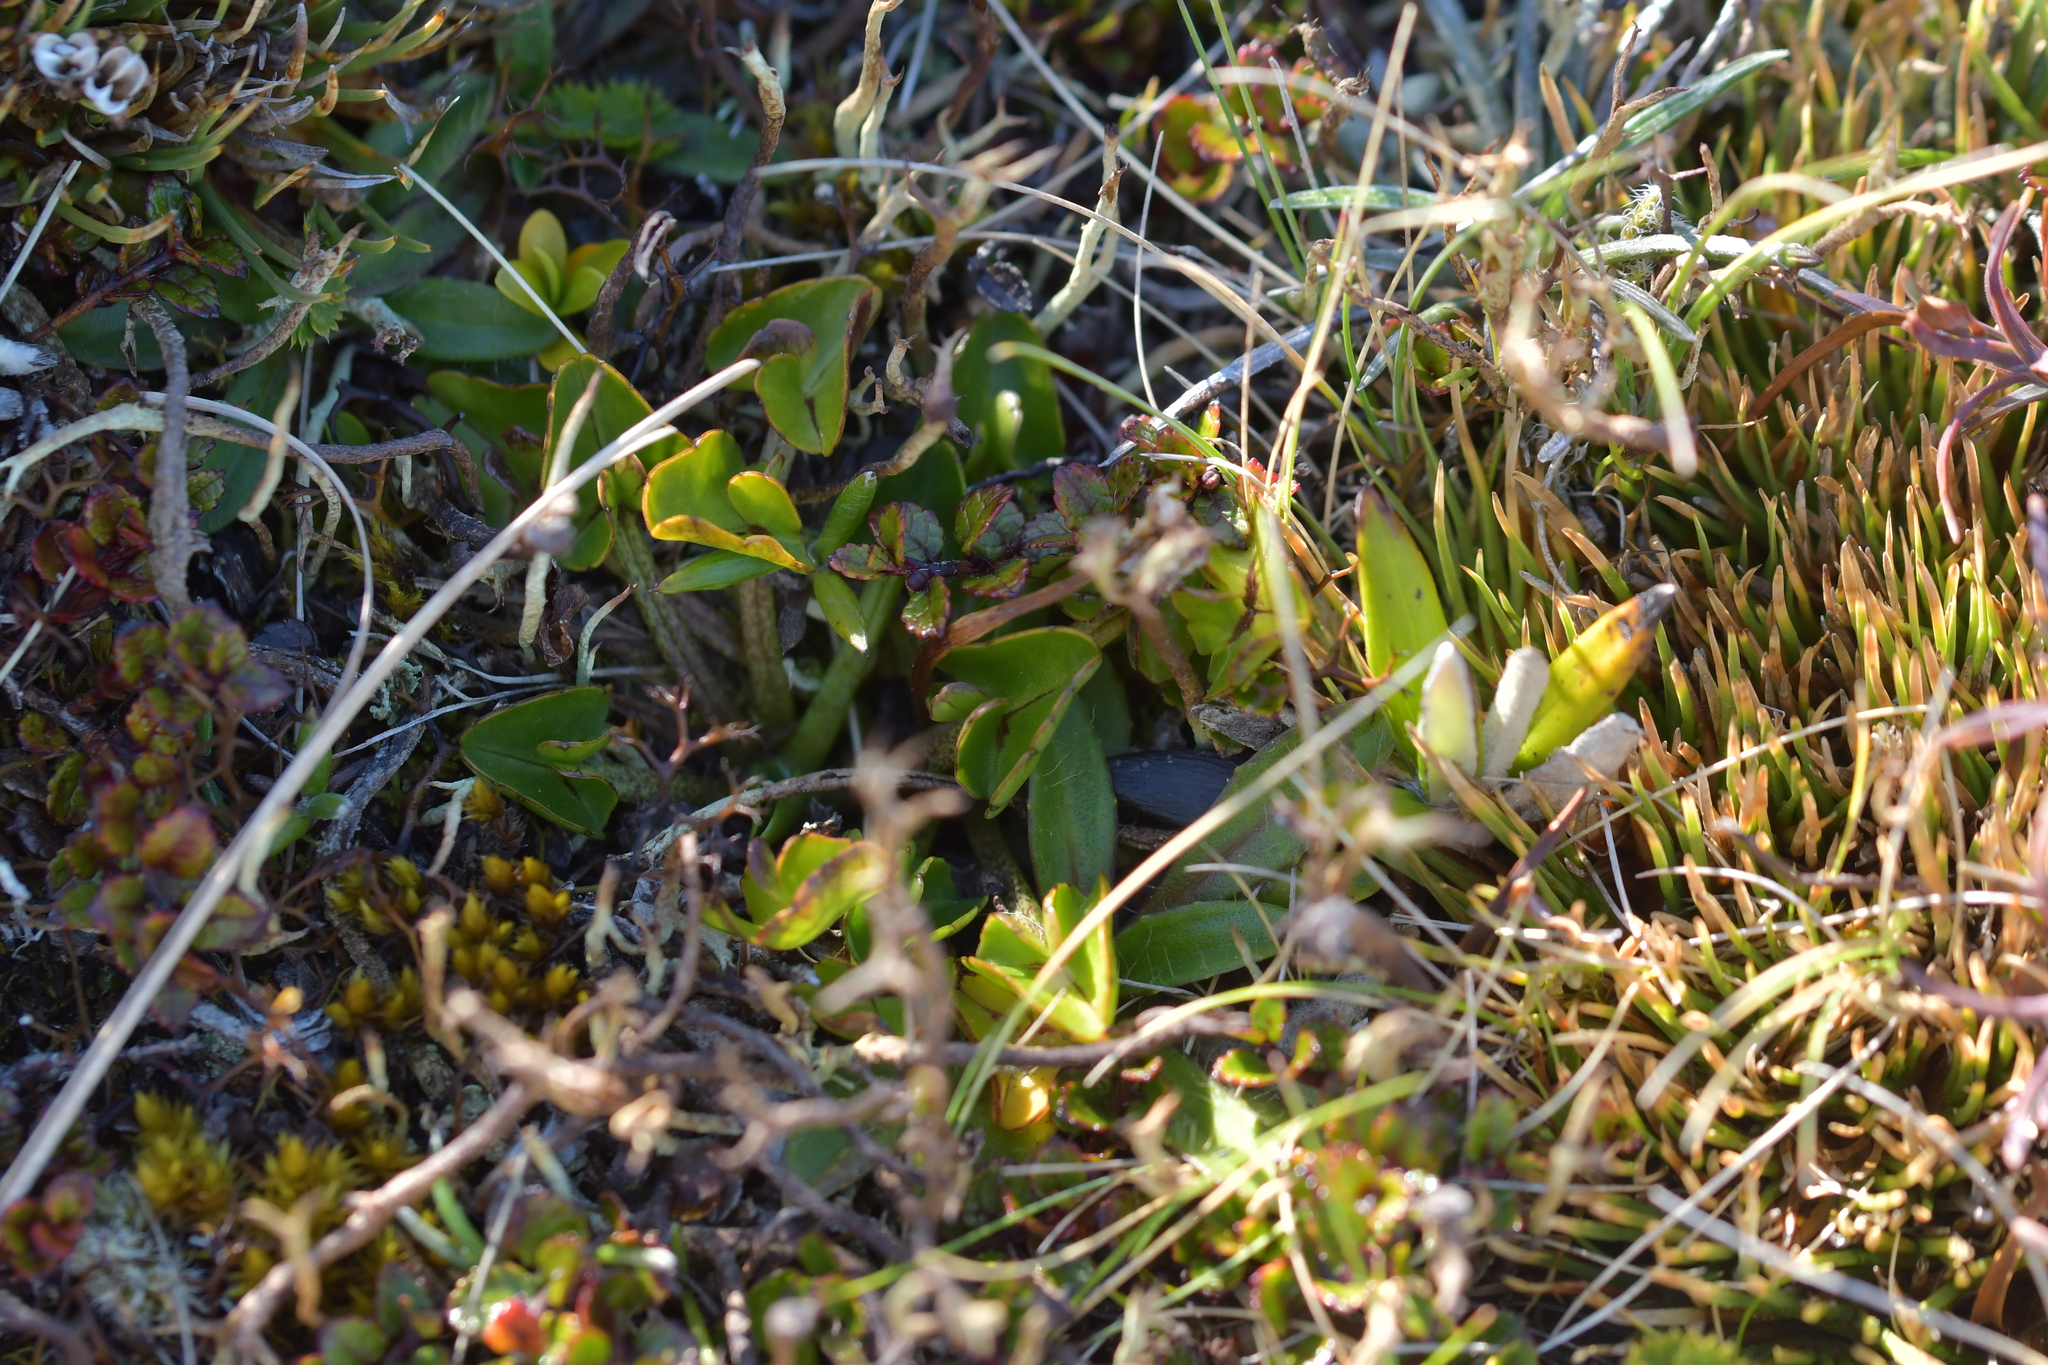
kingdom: Plantae
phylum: Tracheophyta
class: Magnoliopsida
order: Ranunculales
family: Ranunculaceae
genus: Caltha
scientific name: Caltha novae-zelandiae
